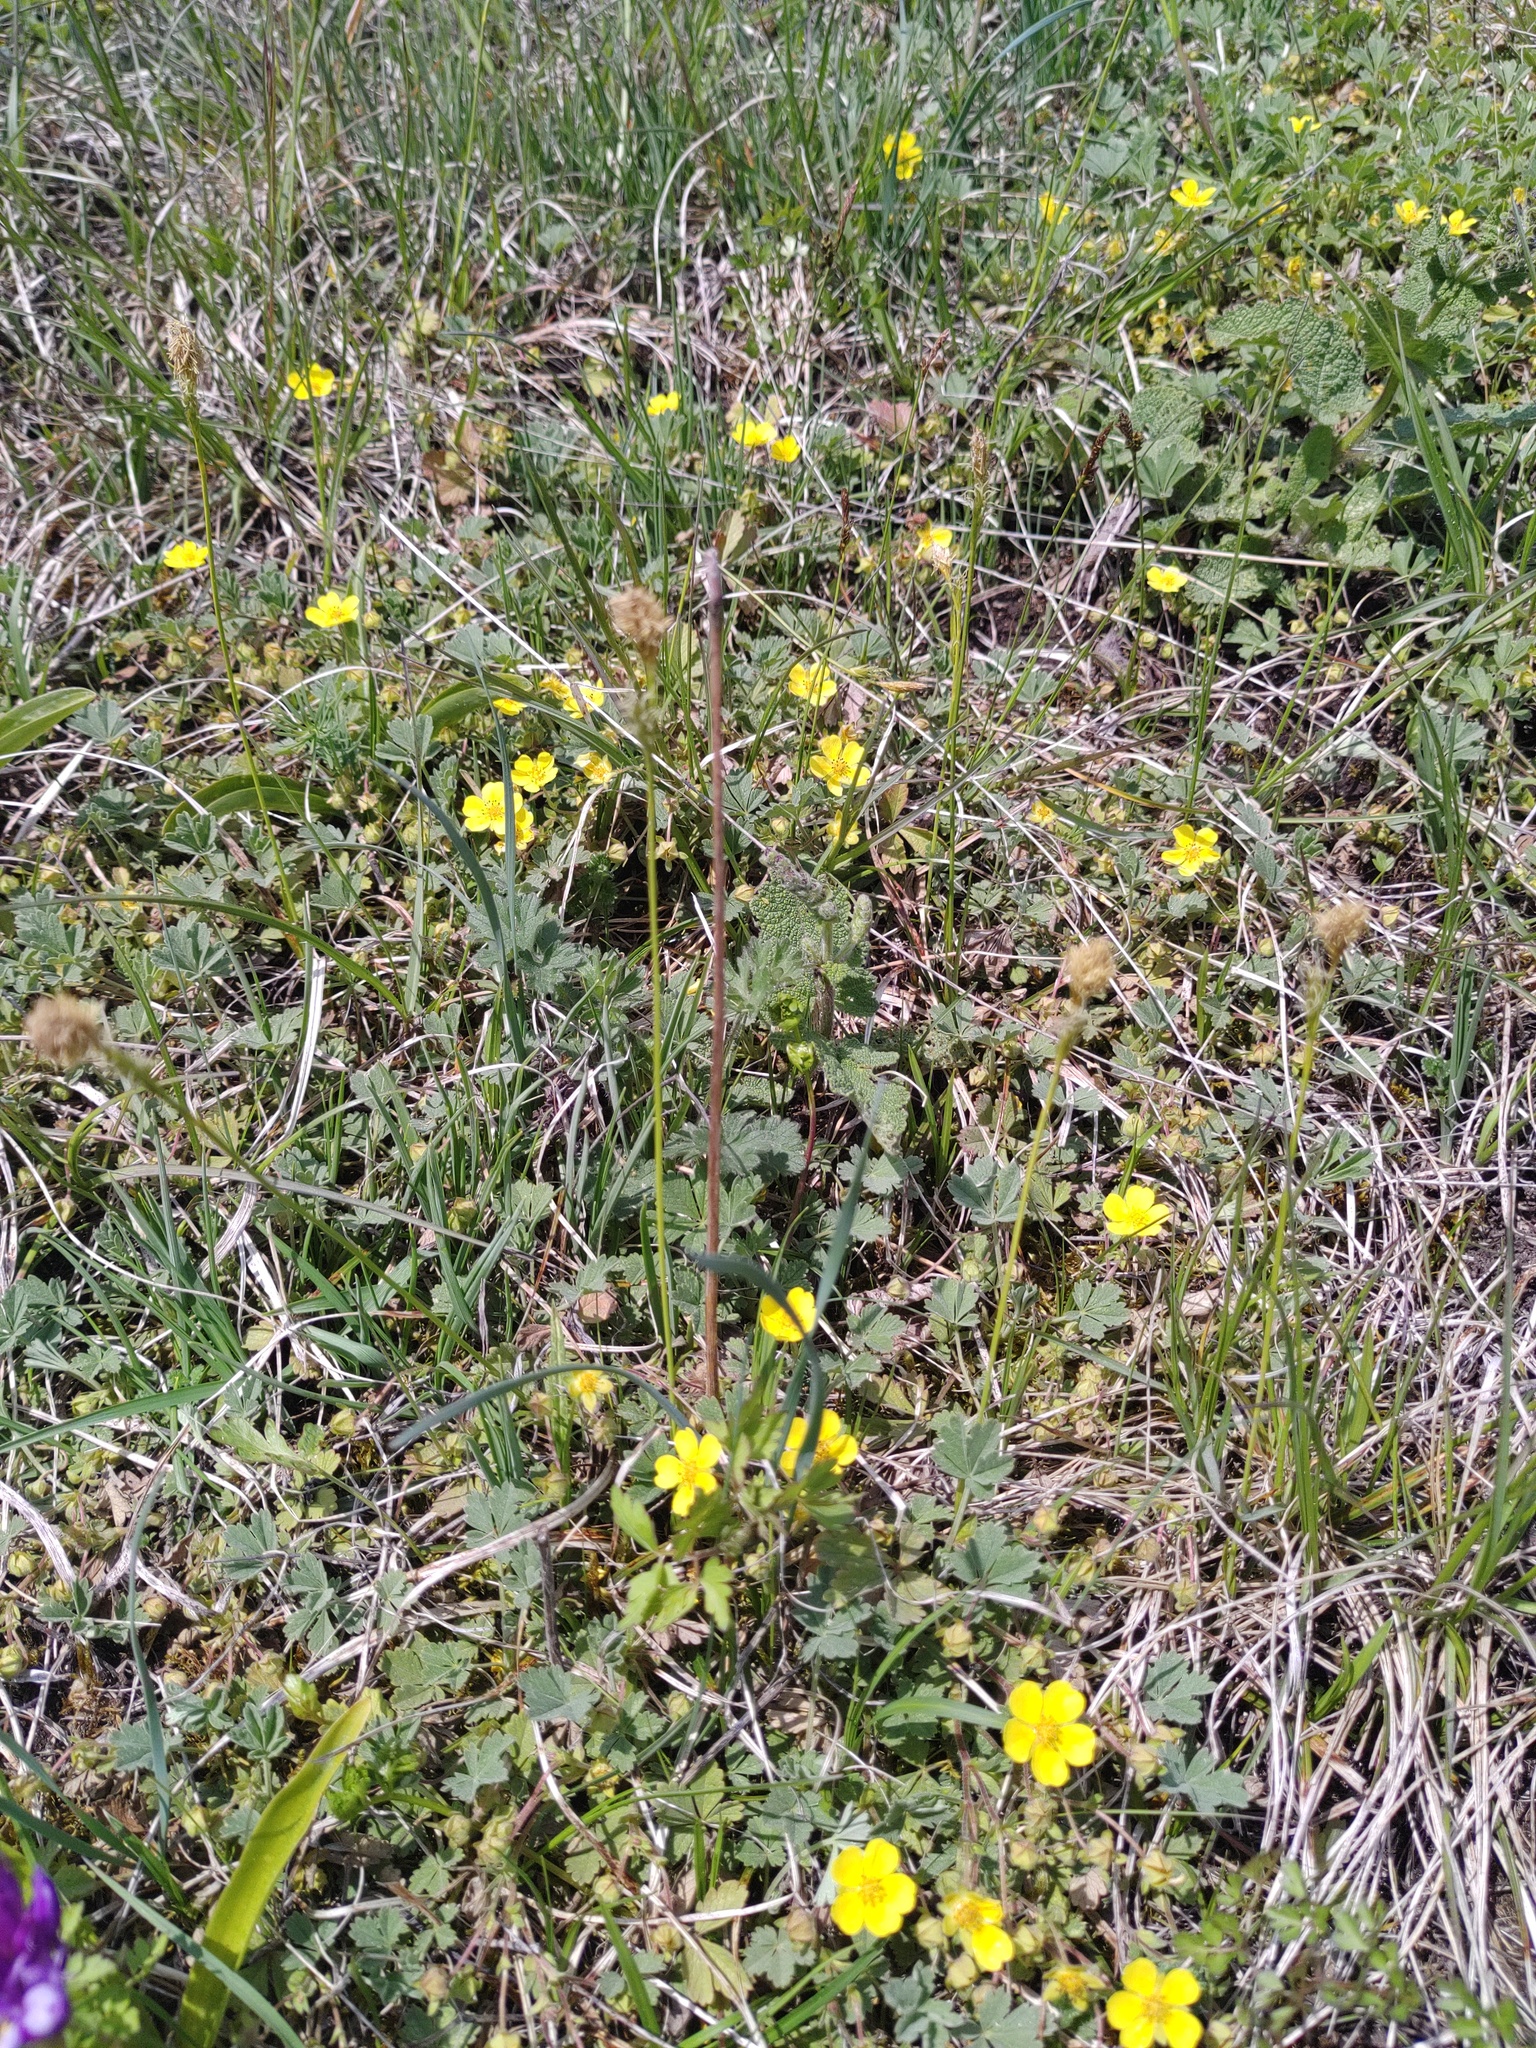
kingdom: Plantae
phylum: Tracheophyta
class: Liliopsida
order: Poales
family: Cyperaceae
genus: Carex
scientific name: Carex michelii
